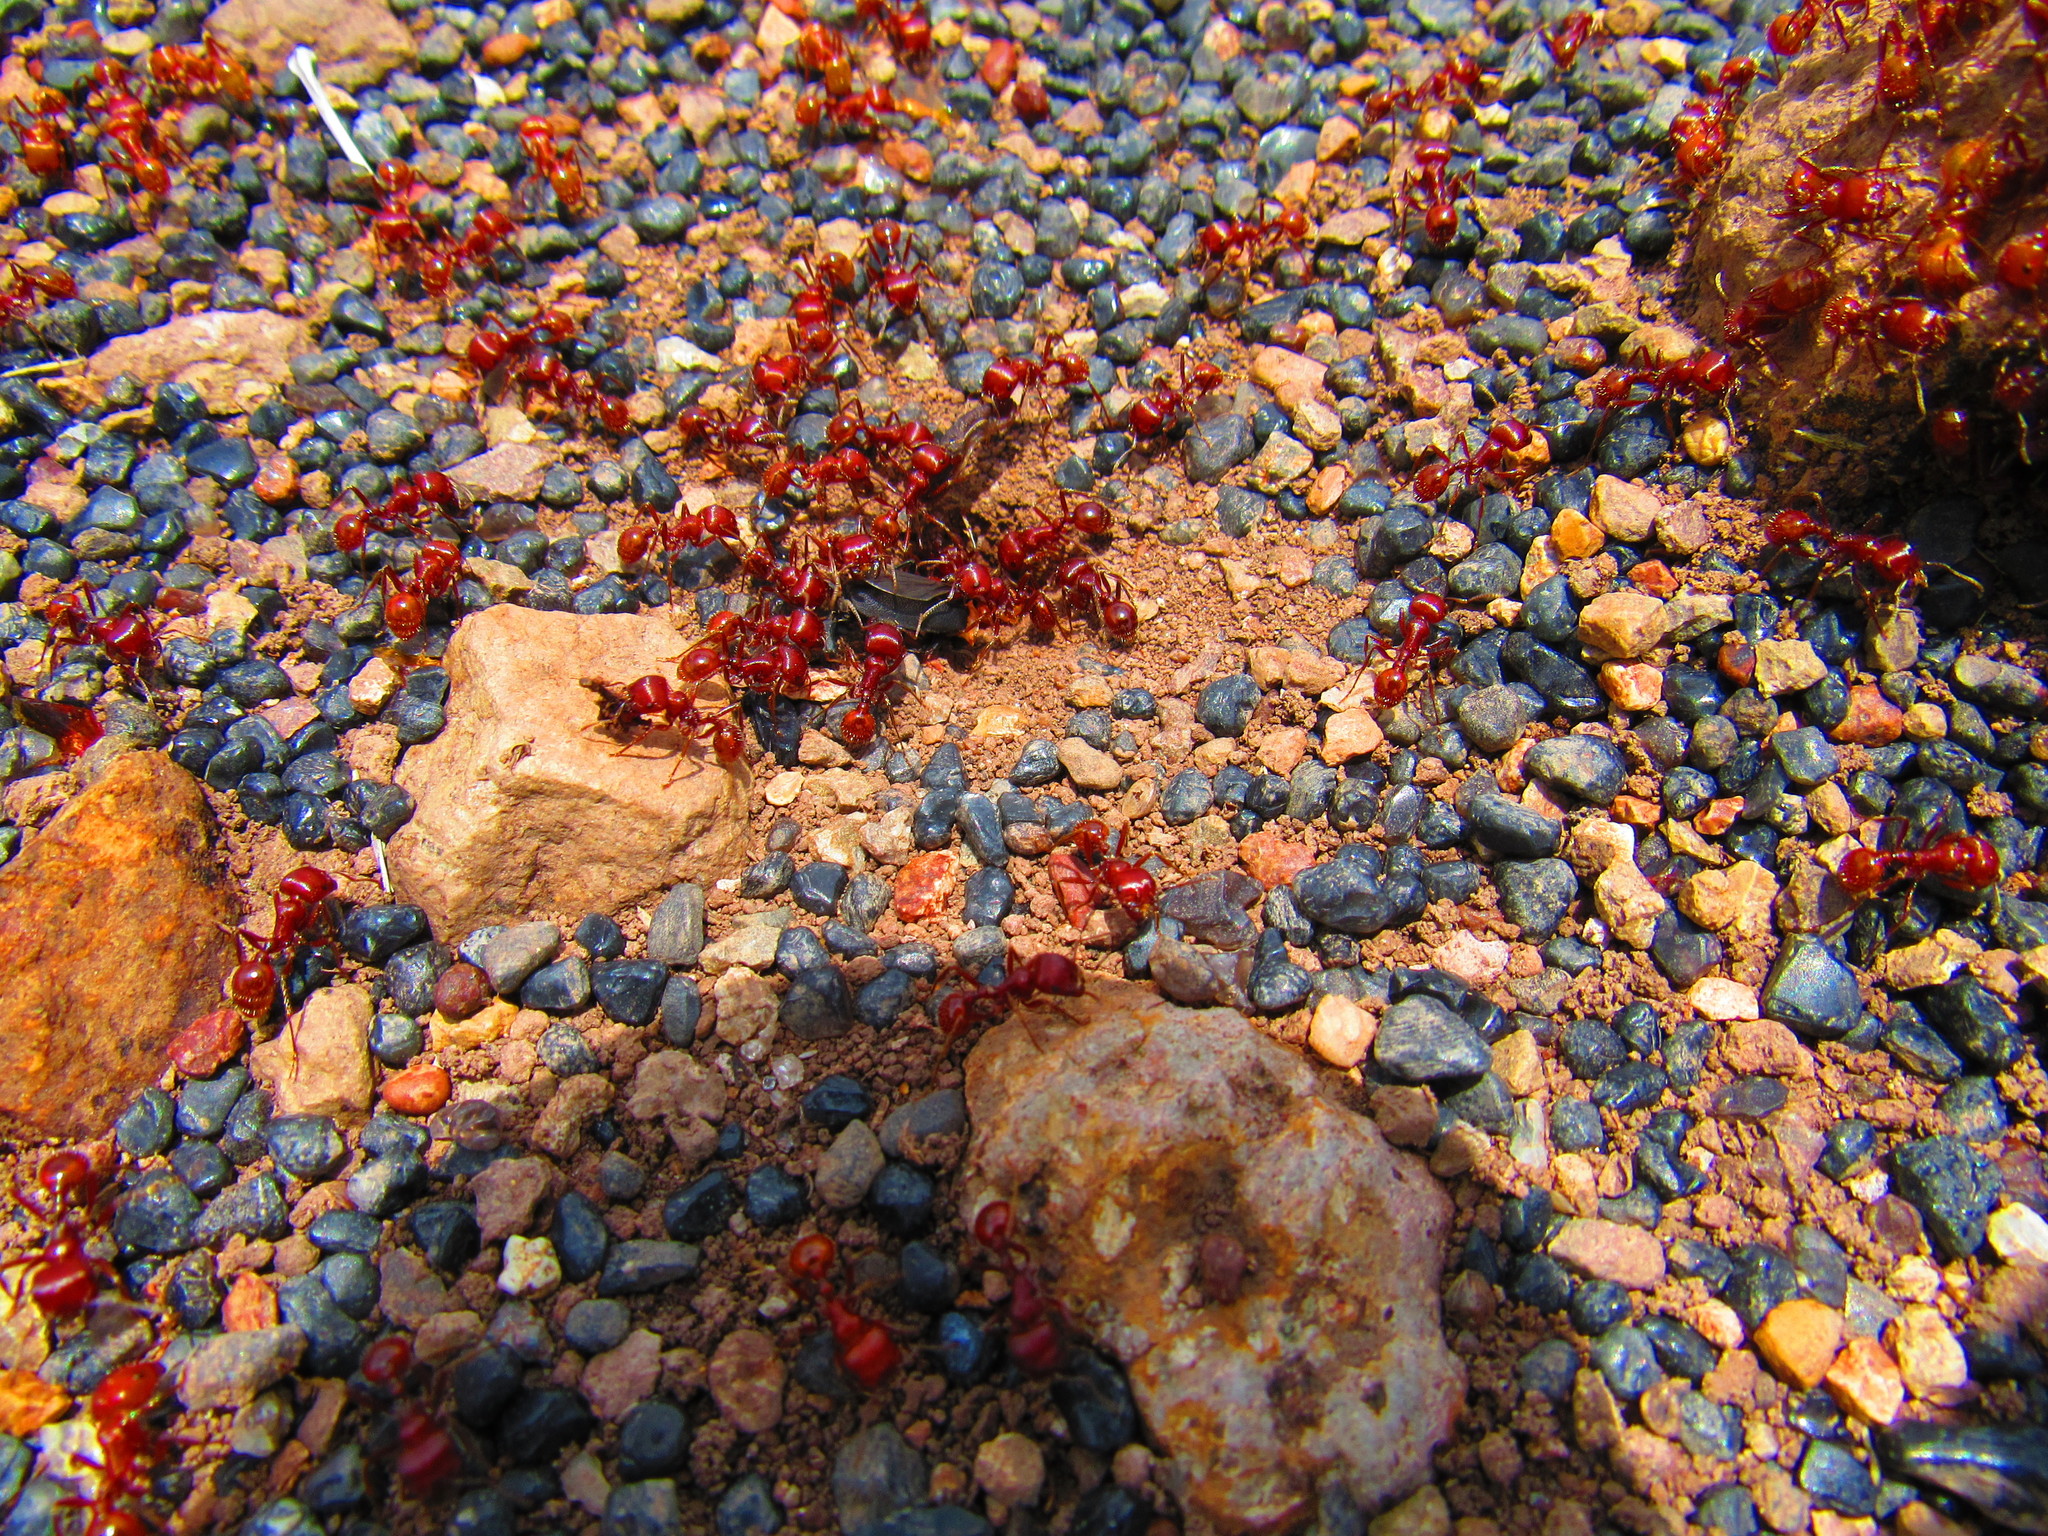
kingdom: Animalia
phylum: Arthropoda
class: Insecta
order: Hymenoptera
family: Formicidae
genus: Pogonomyrmex
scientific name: Pogonomyrmex barbatus
